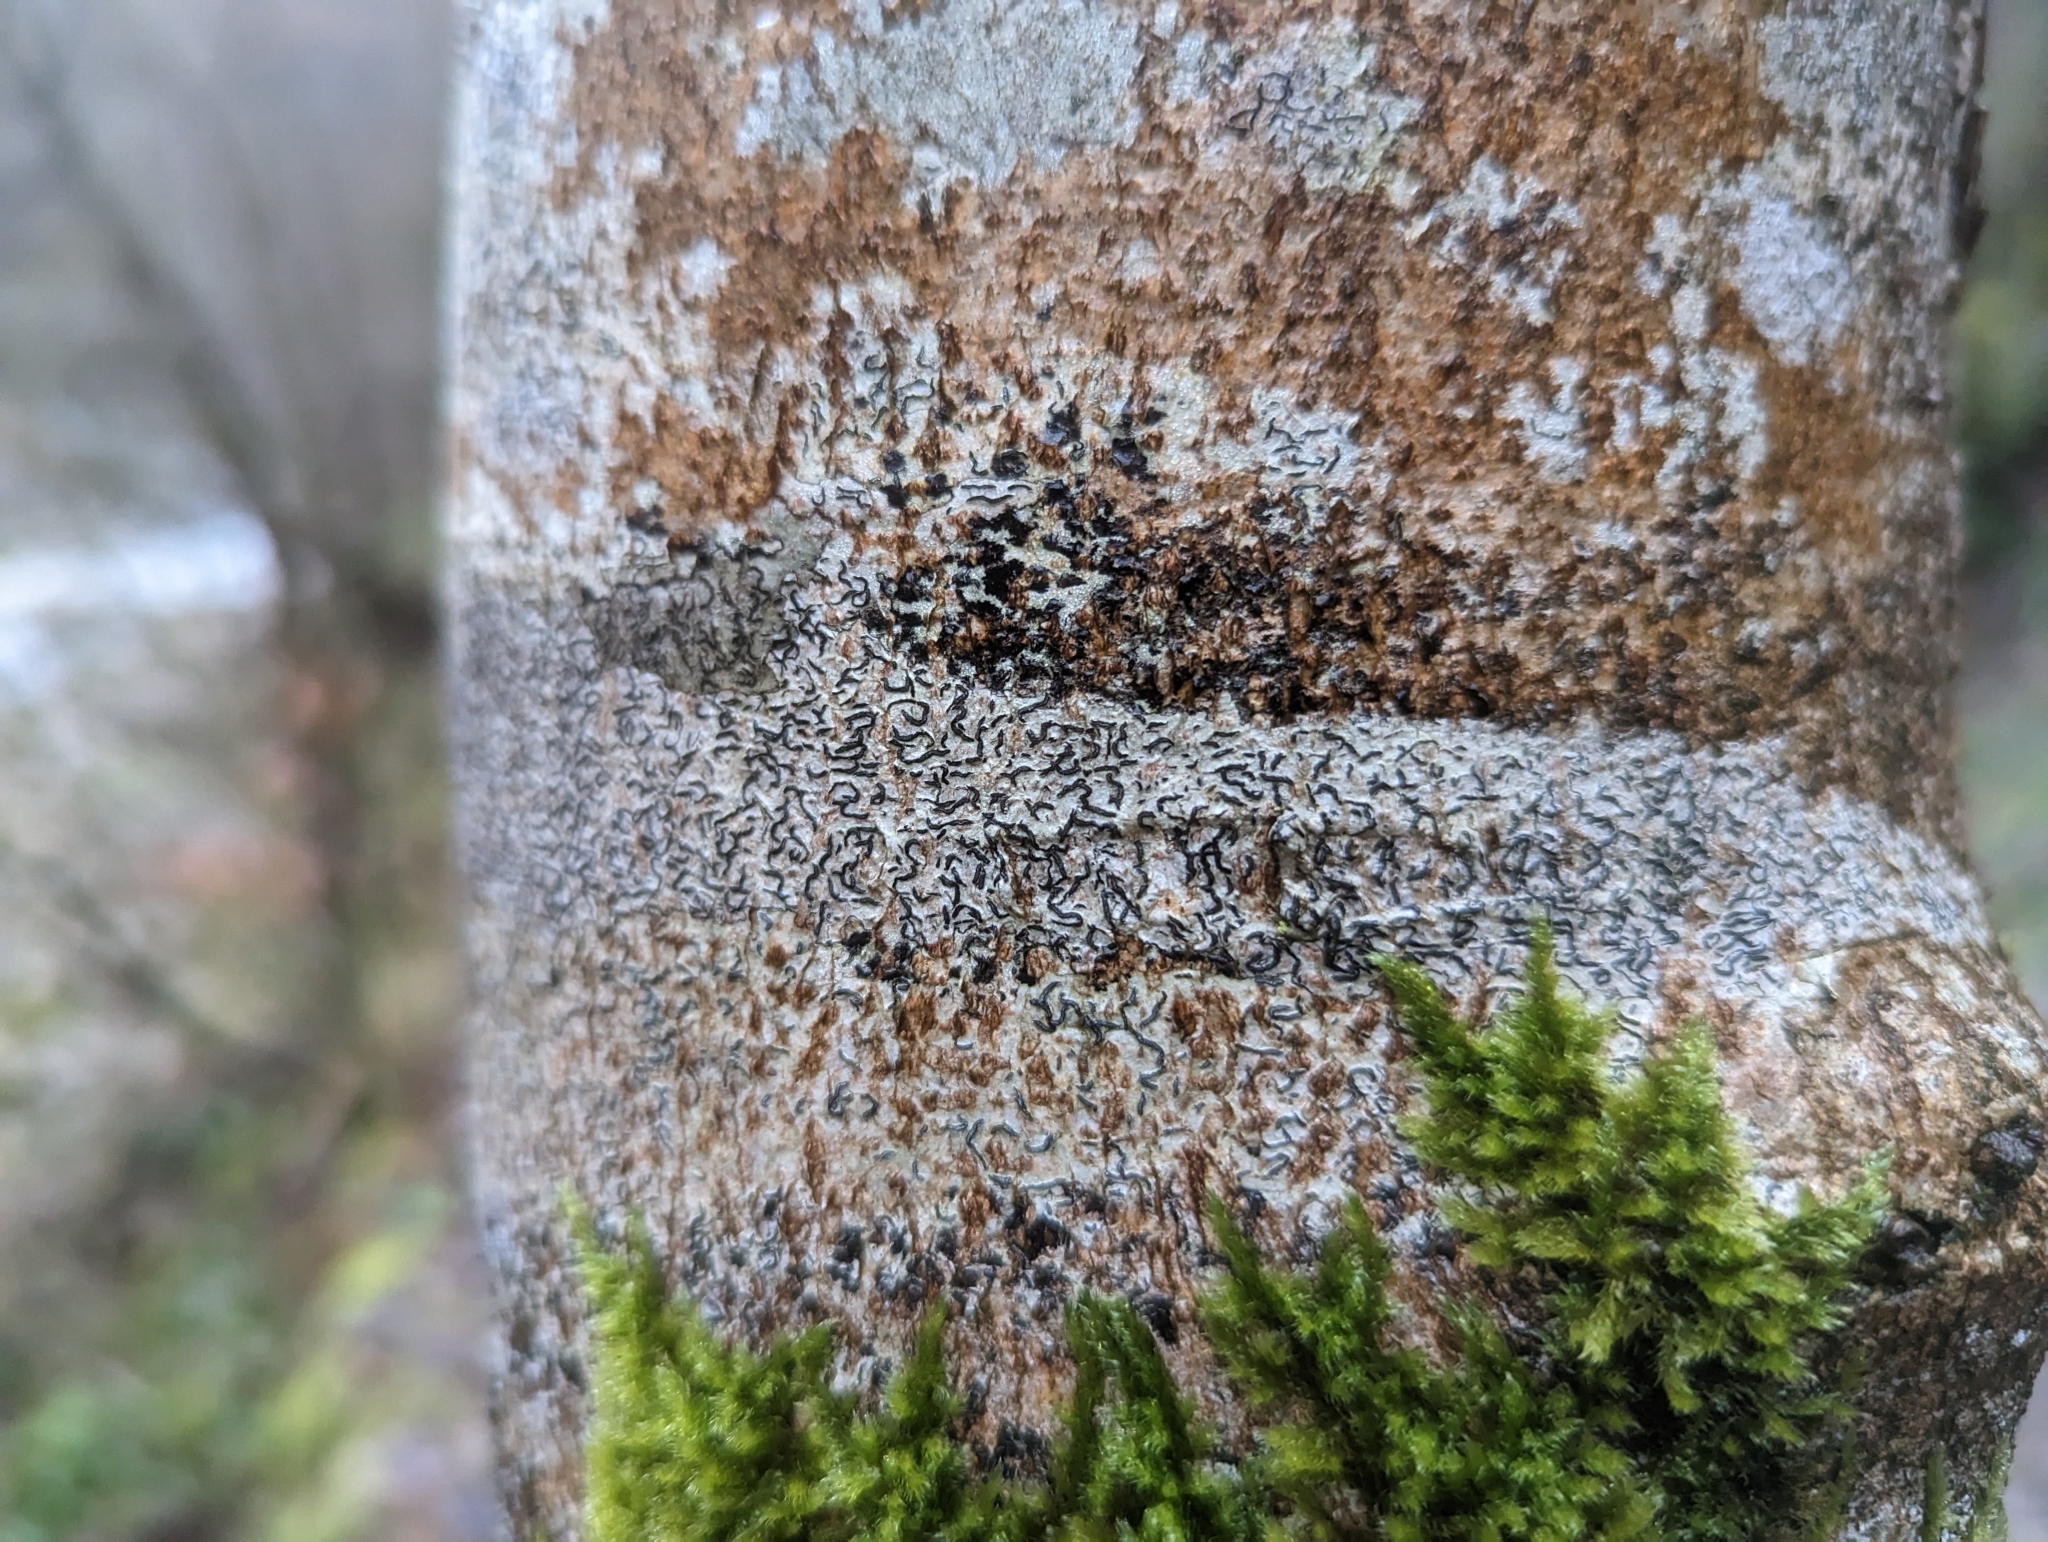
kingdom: Fungi
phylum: Ascomycota
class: Lecanoromycetes
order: Ostropales
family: Graphidaceae
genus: Graphis
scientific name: Graphis scripta
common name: Script lichen
